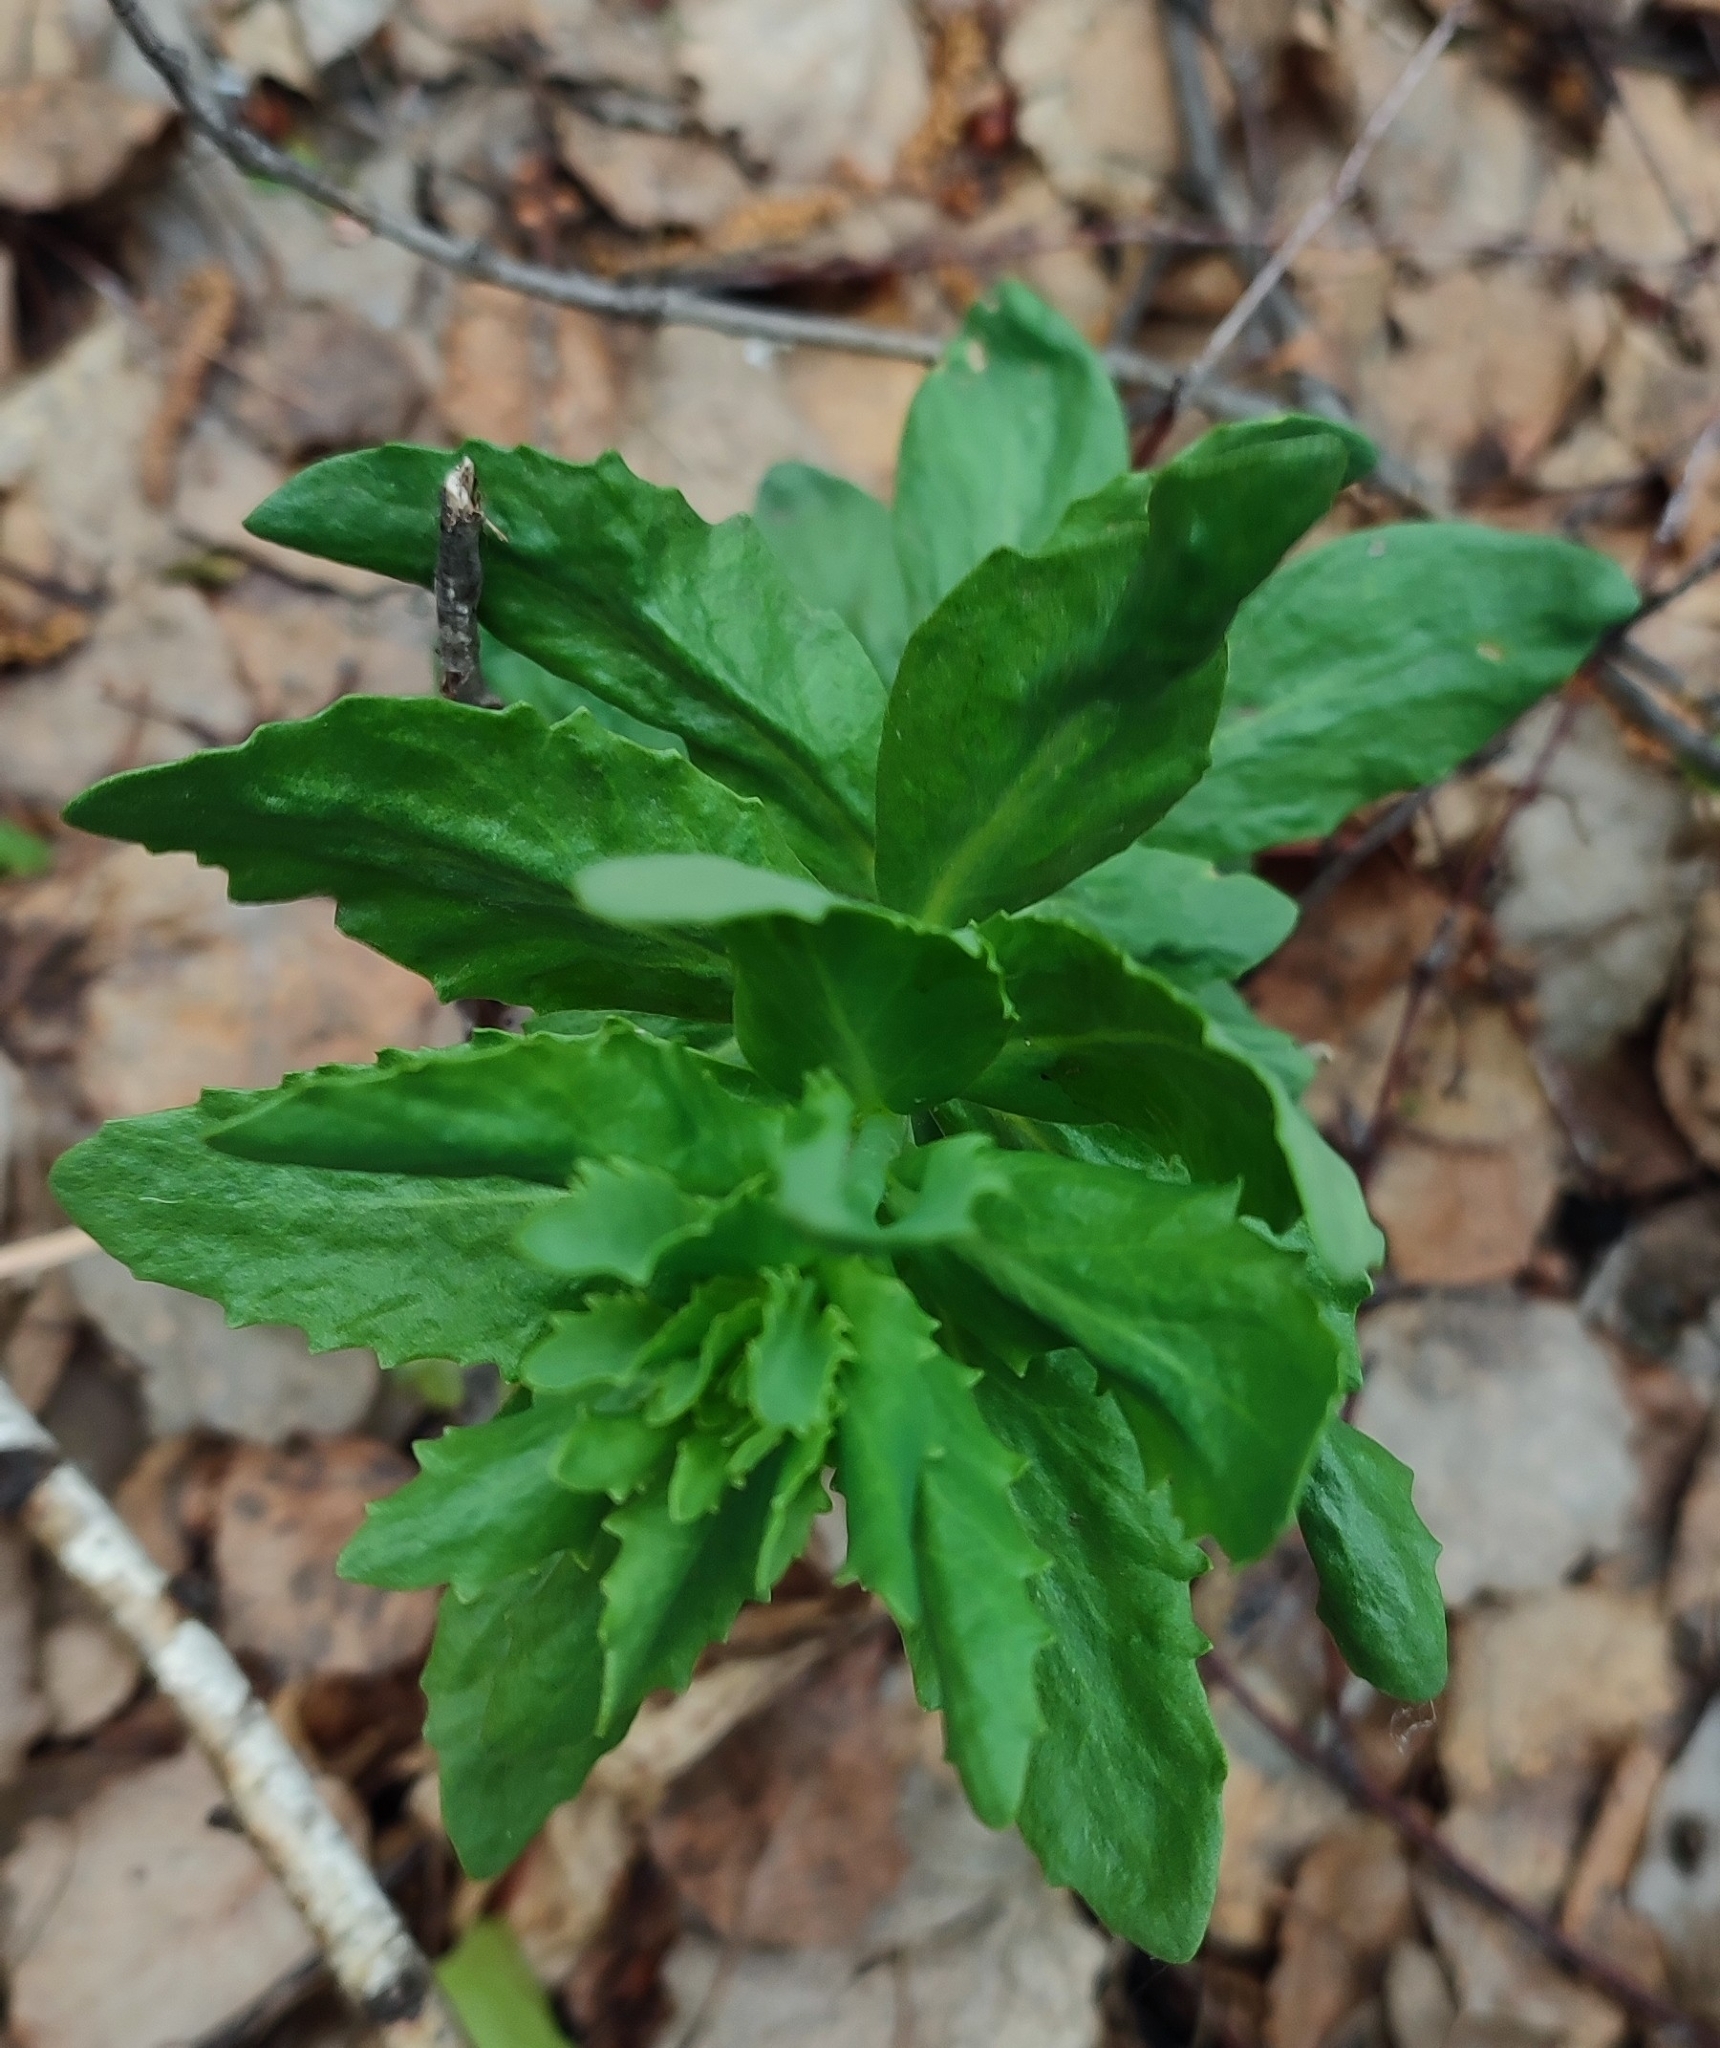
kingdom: Plantae
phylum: Tracheophyta
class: Magnoliopsida
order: Saxifragales
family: Crassulaceae
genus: Hylotelephium
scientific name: Hylotelephium telephium
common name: Live-forever
